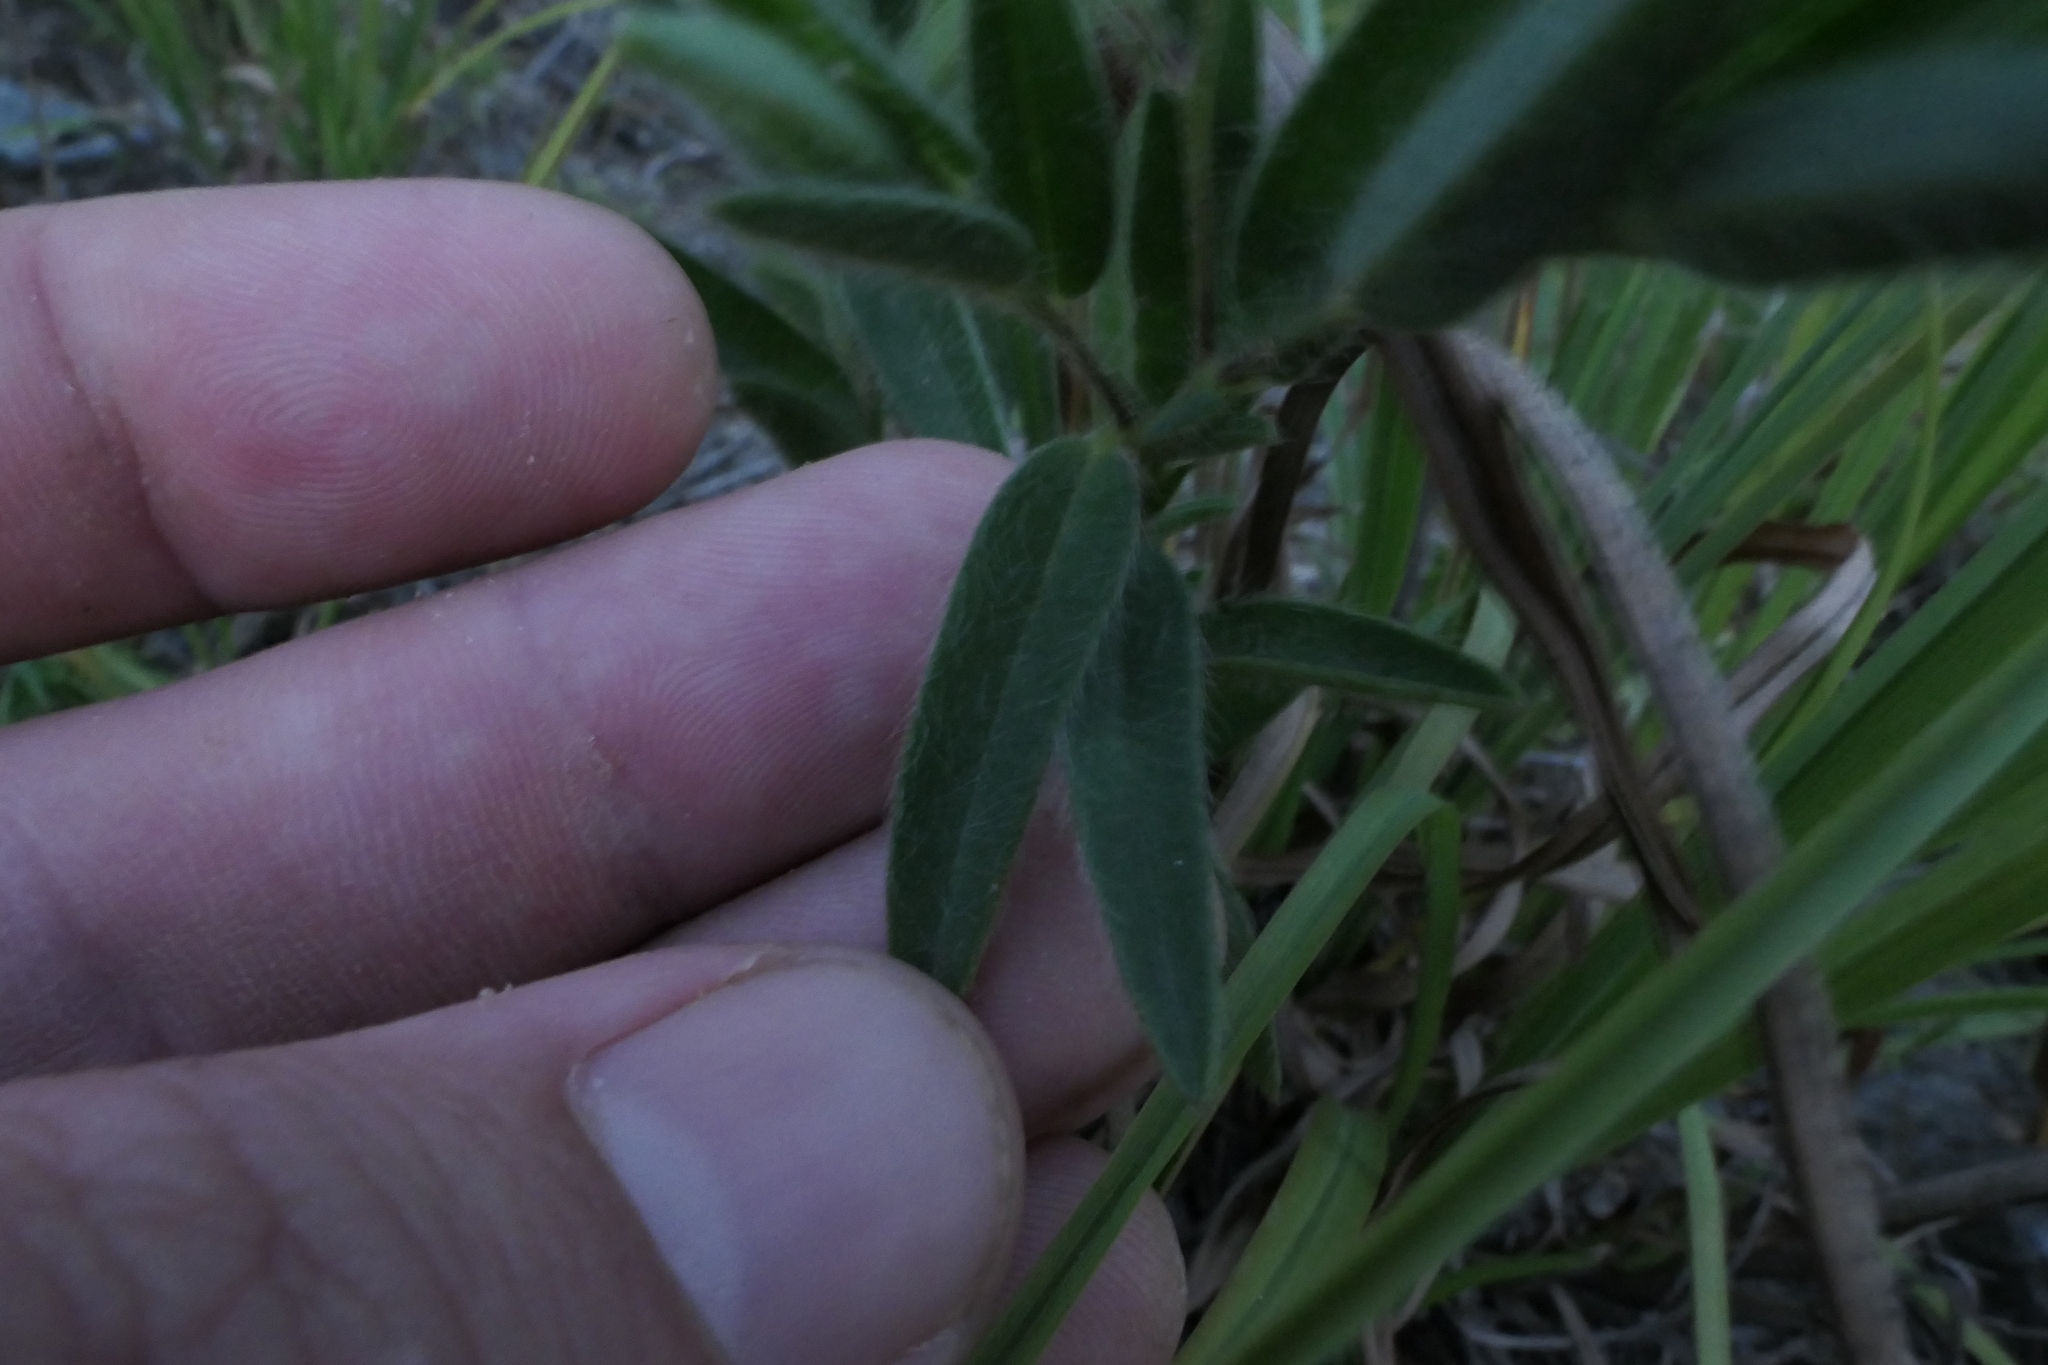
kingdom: Plantae
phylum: Tracheophyta
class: Magnoliopsida
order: Fabales
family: Fabaceae
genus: Crotalaria
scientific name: Crotalaria sagittalis
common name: Arrowhead rattlebox
